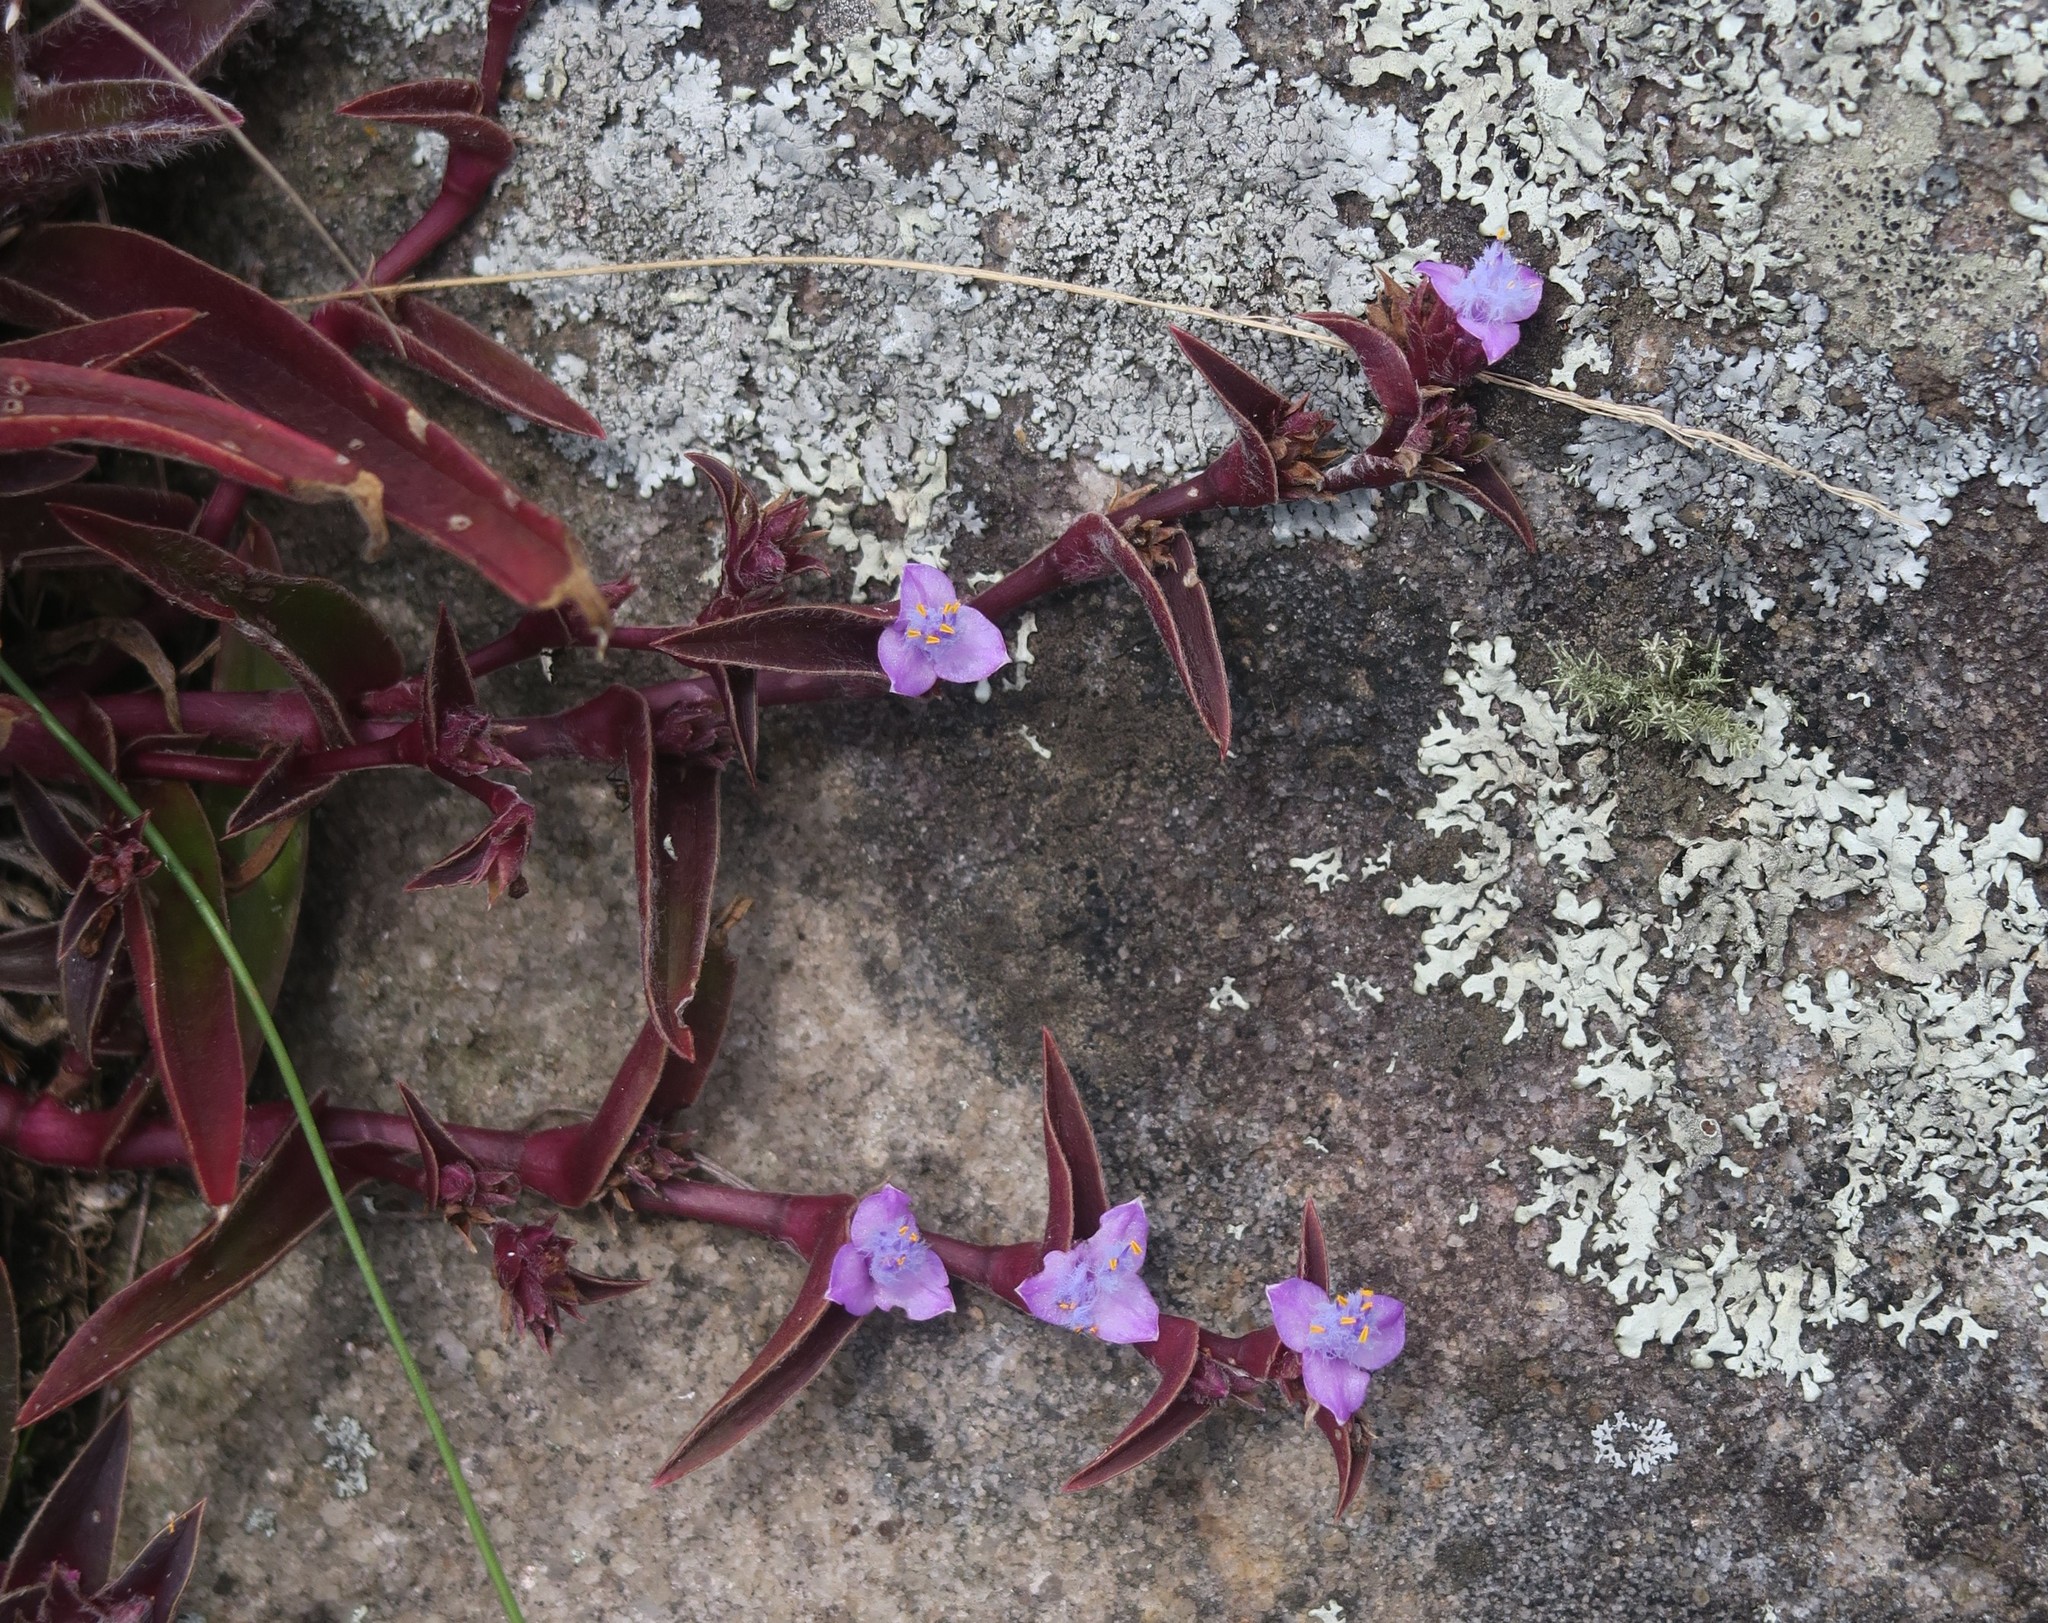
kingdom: Plantae
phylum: Tracheophyta
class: Liliopsida
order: Commelinales
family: Commelinaceae
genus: Cyanotis
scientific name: Cyanotis lapidosa
